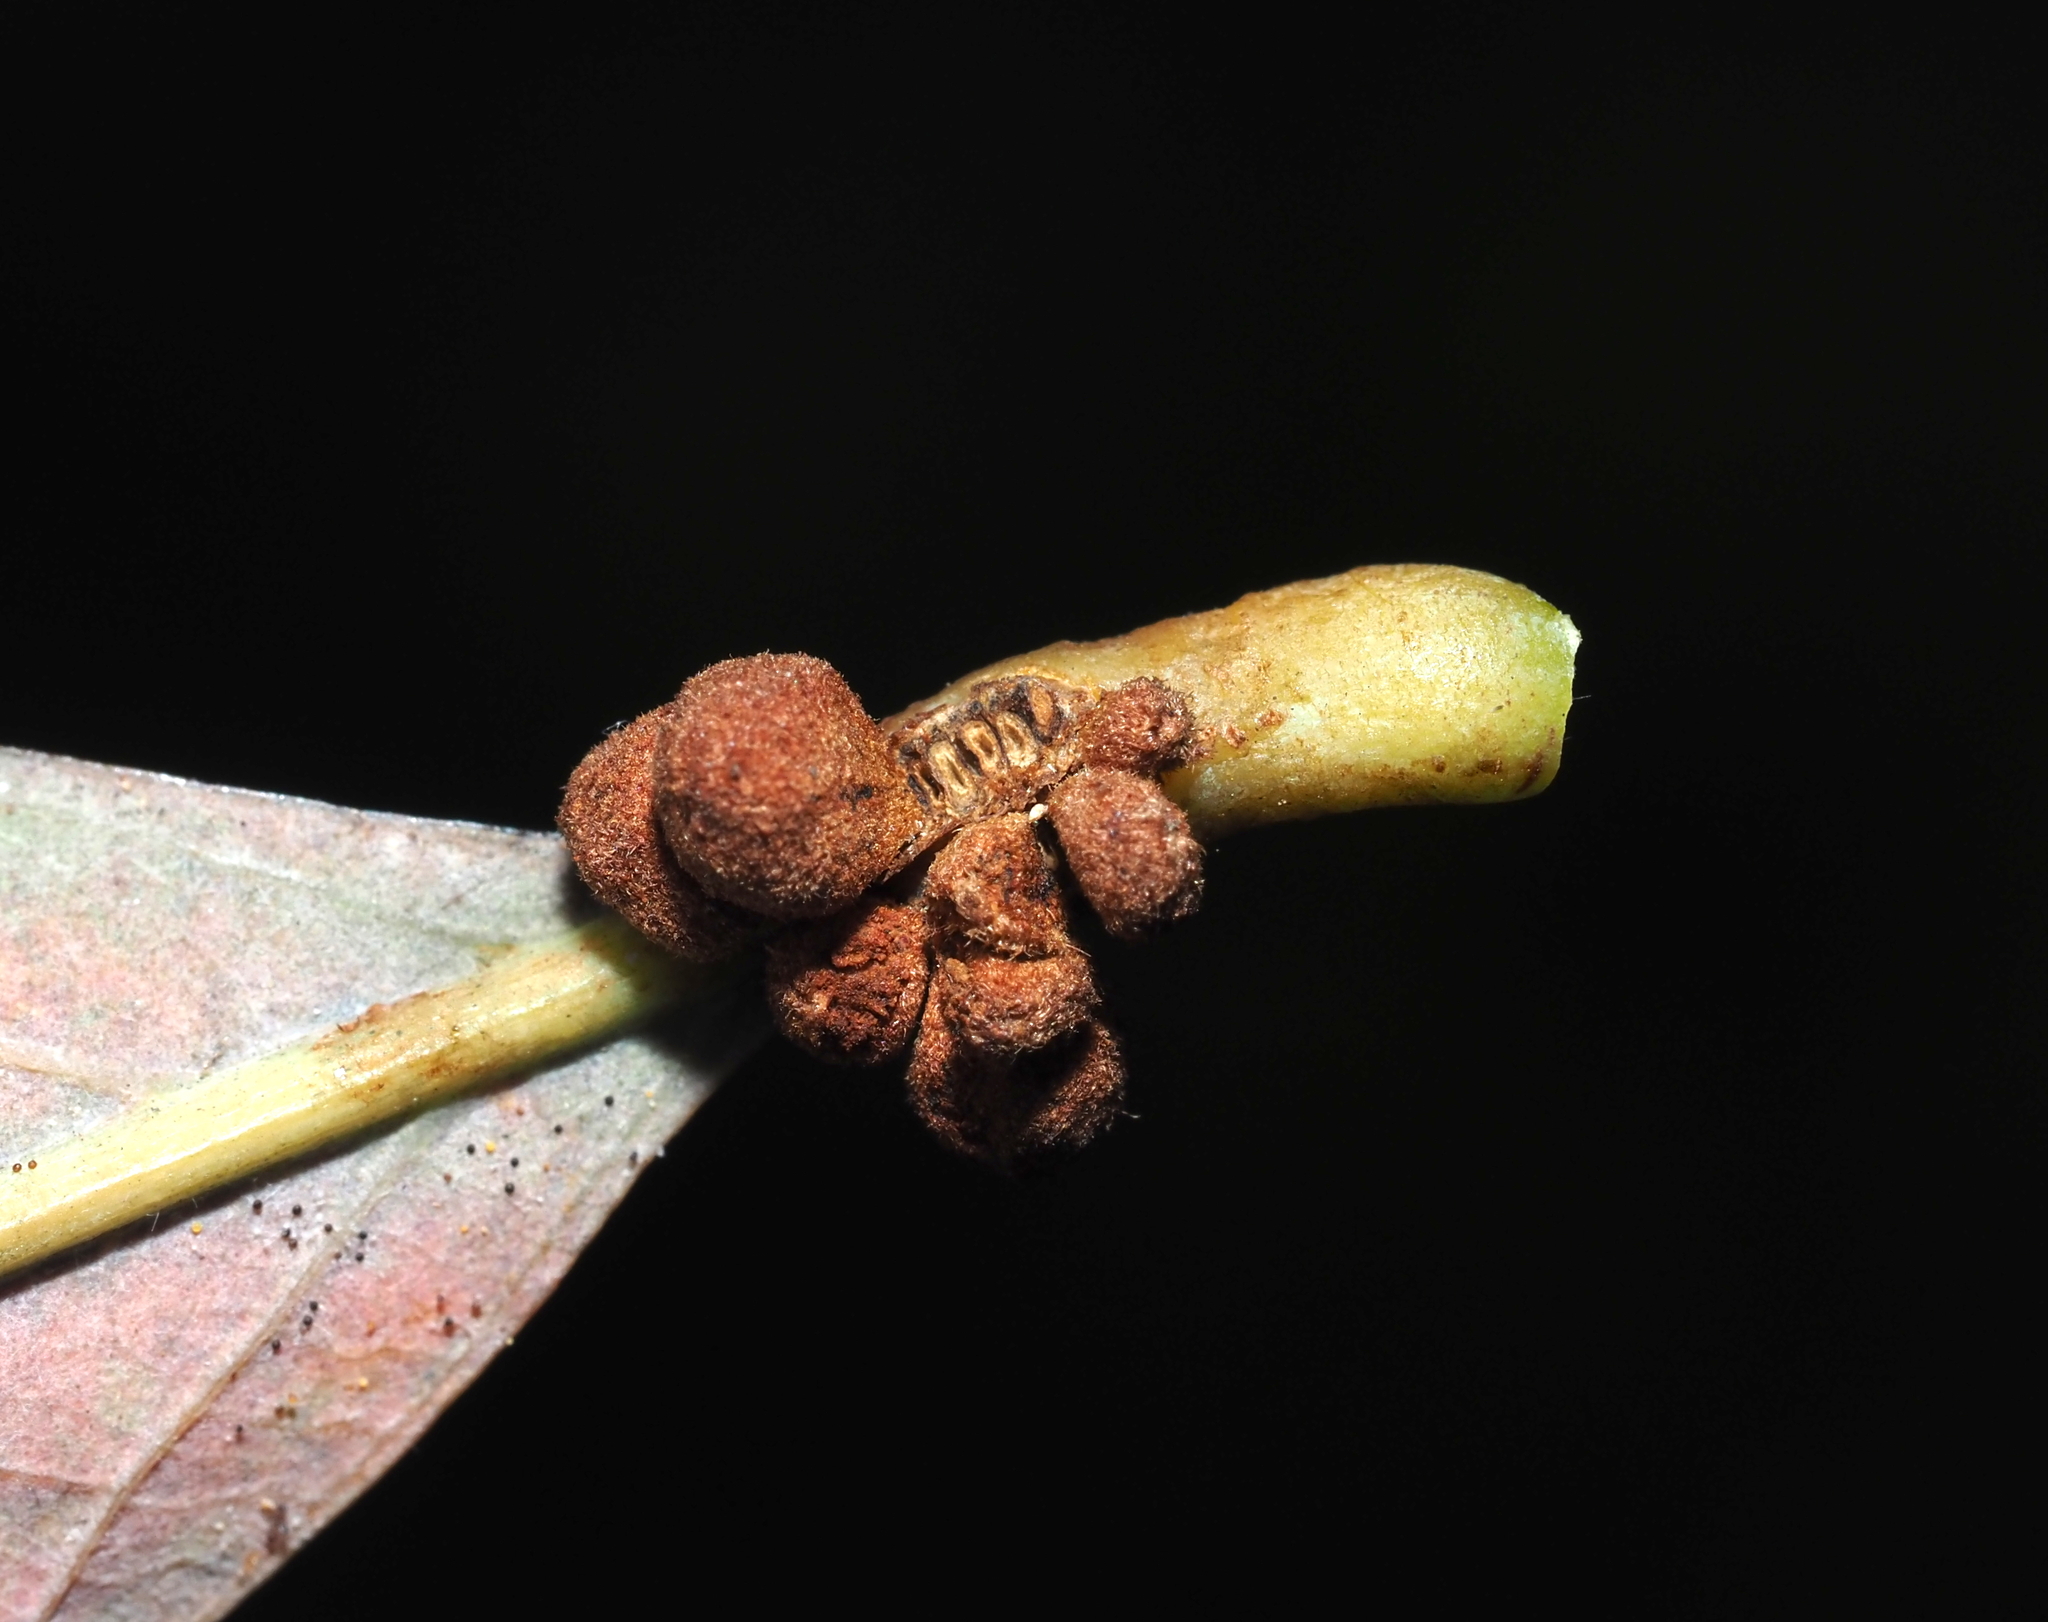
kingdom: Animalia
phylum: Arthropoda
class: Insecta
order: Hymenoptera
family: Cynipidae
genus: Andricus
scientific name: Andricus
